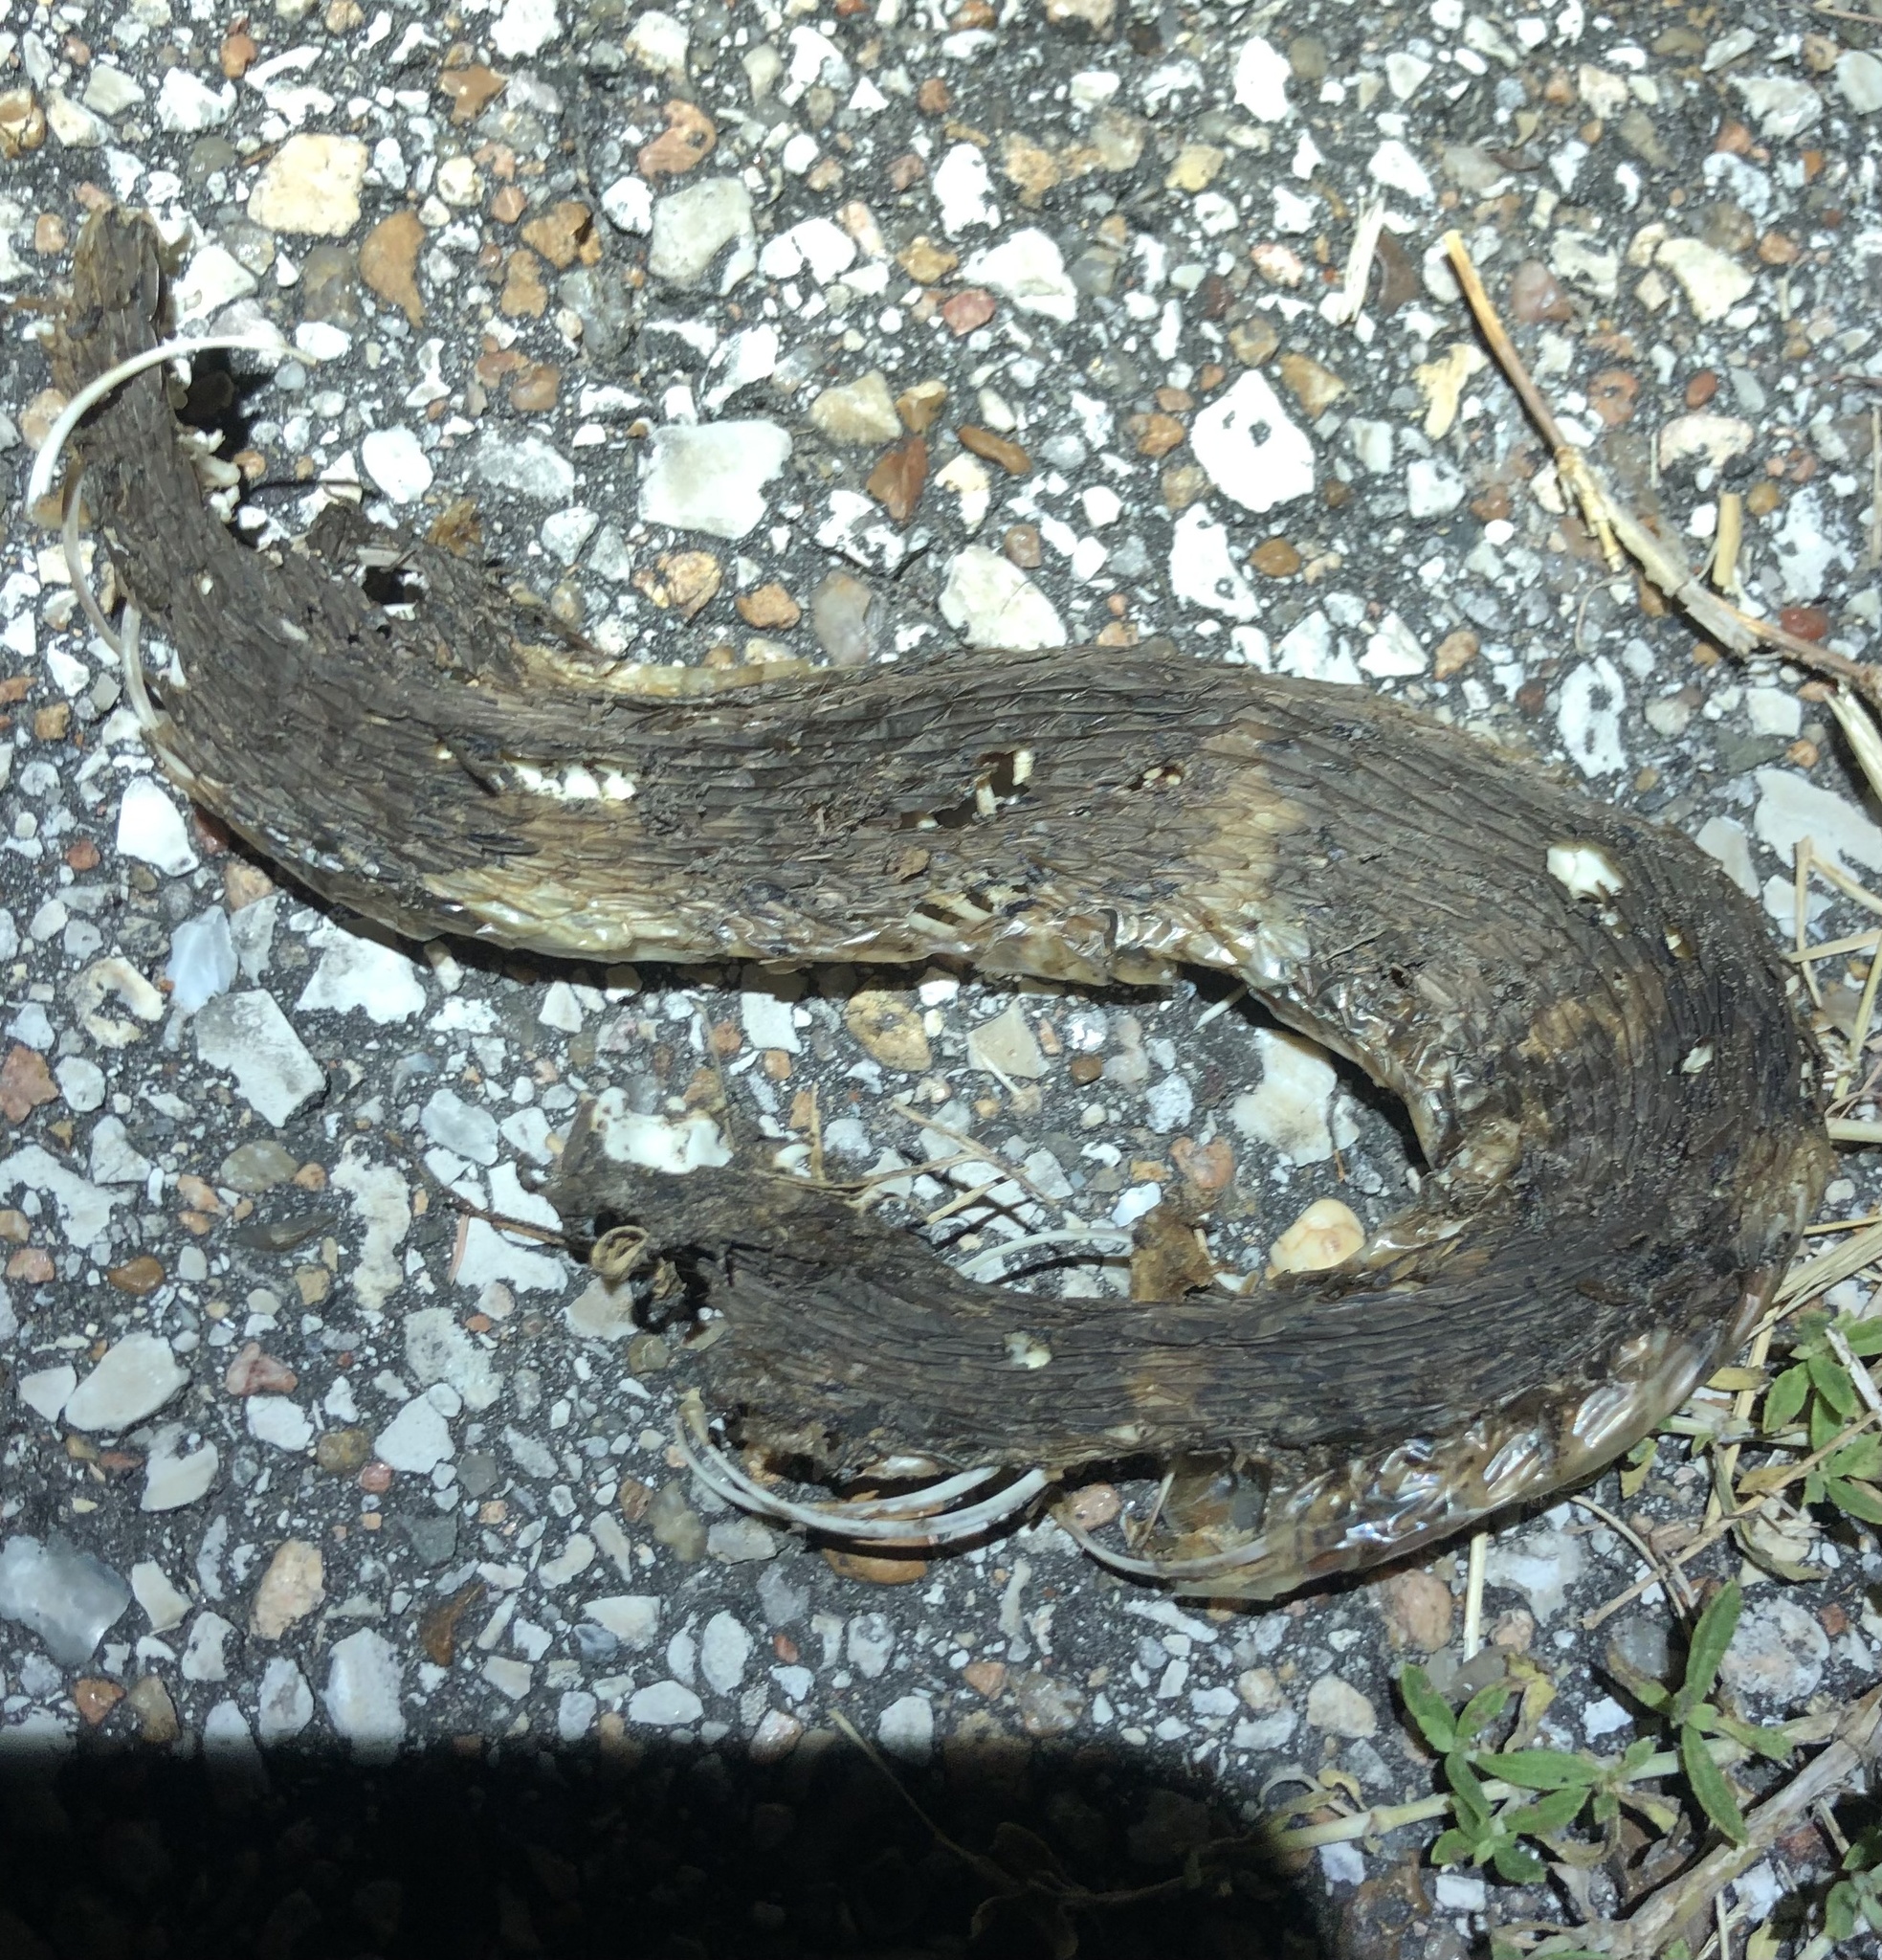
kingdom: Animalia
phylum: Chordata
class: Squamata
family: Colubridae
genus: Nerodia
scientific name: Nerodia fasciata
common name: Southern water snake
